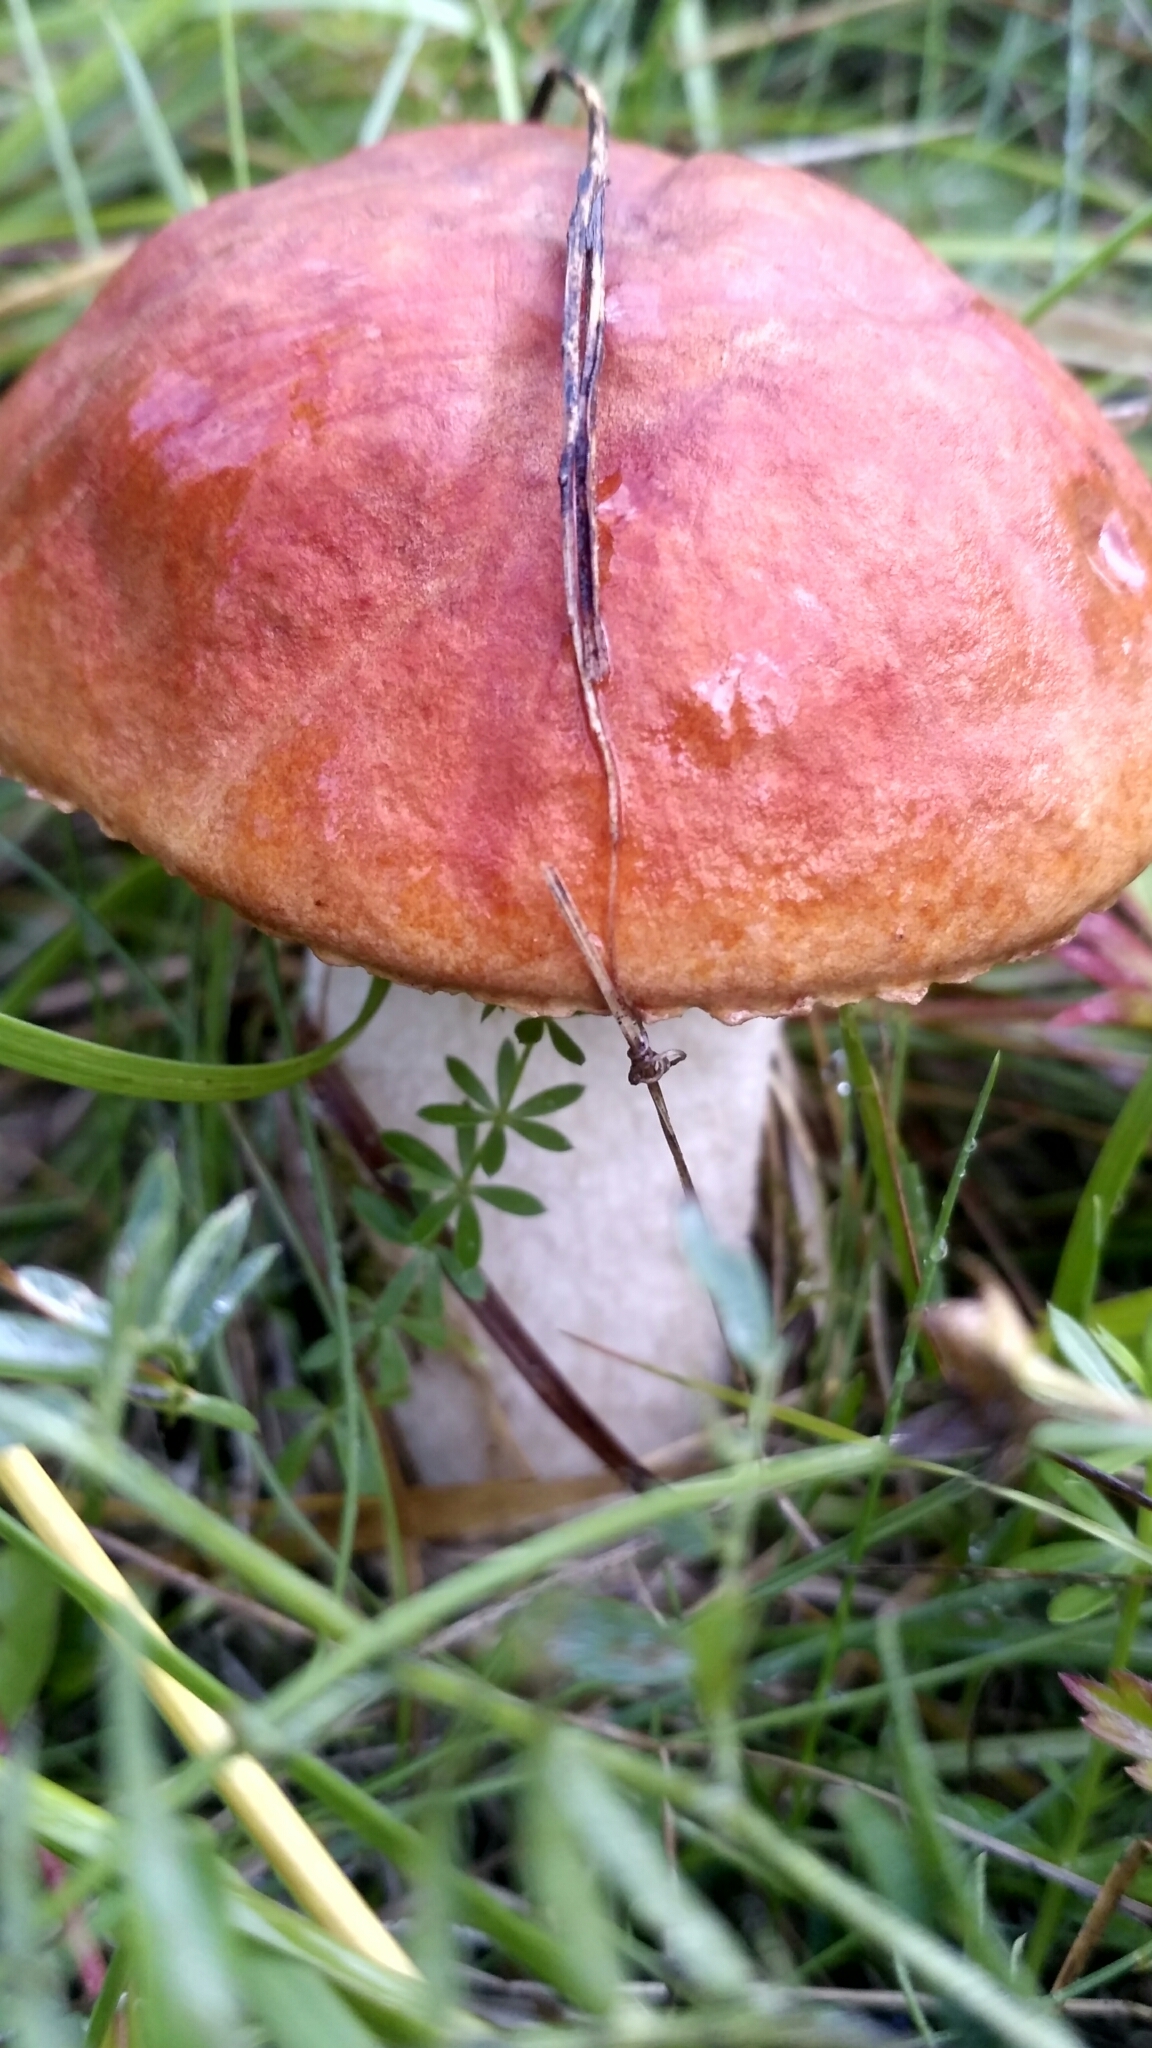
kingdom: Fungi
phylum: Basidiomycota
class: Agaricomycetes
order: Boletales
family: Boletaceae
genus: Leccinum
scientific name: Leccinum aurantiacum
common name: Orange bolete
